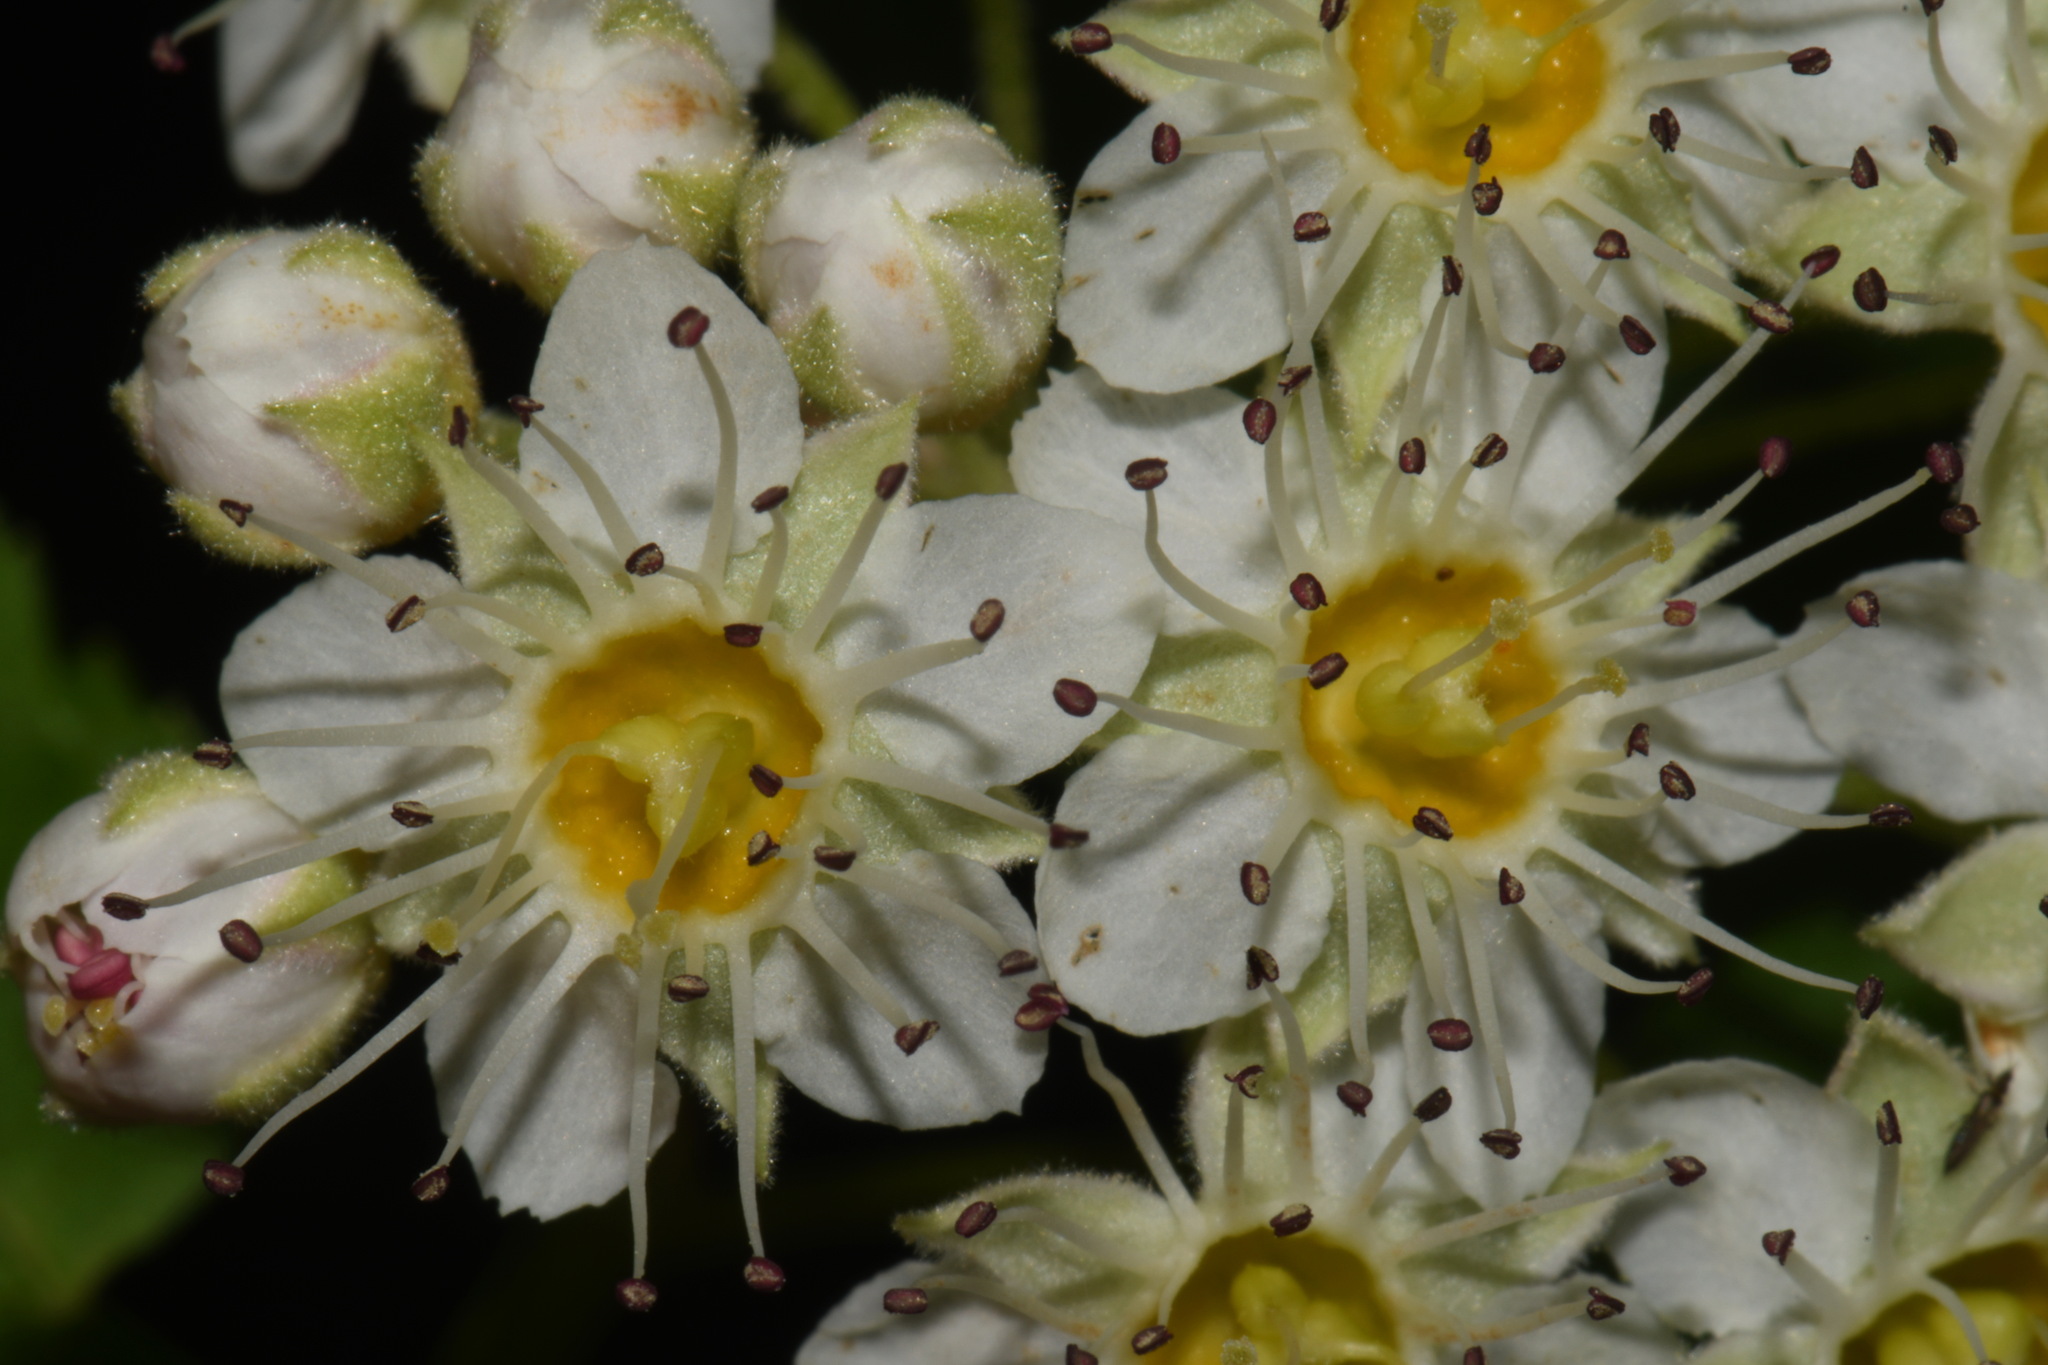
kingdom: Plantae
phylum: Tracheophyta
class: Magnoliopsida
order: Rosales
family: Rosaceae
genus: Physocarpus
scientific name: Physocarpus capitatus
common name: Pacific ninebark
